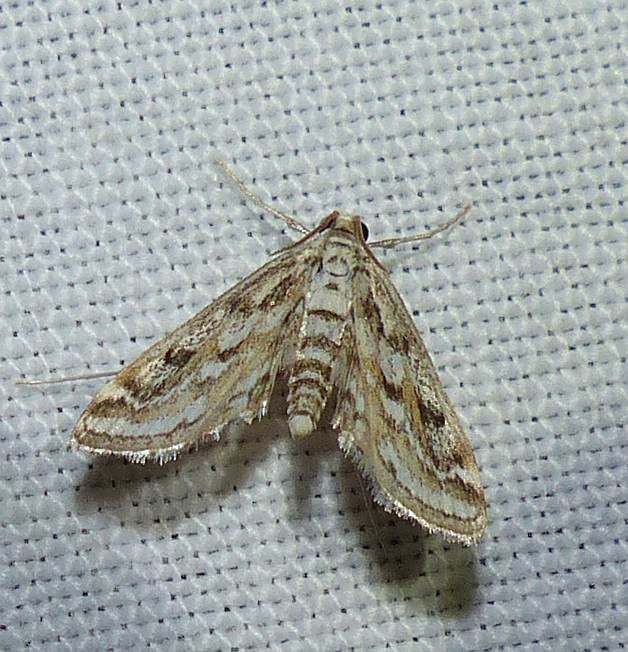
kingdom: Animalia
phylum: Arthropoda
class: Insecta
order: Lepidoptera
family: Crambidae
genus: Parapoynx
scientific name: Parapoynx allionealis
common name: Bladderwort casemaker
